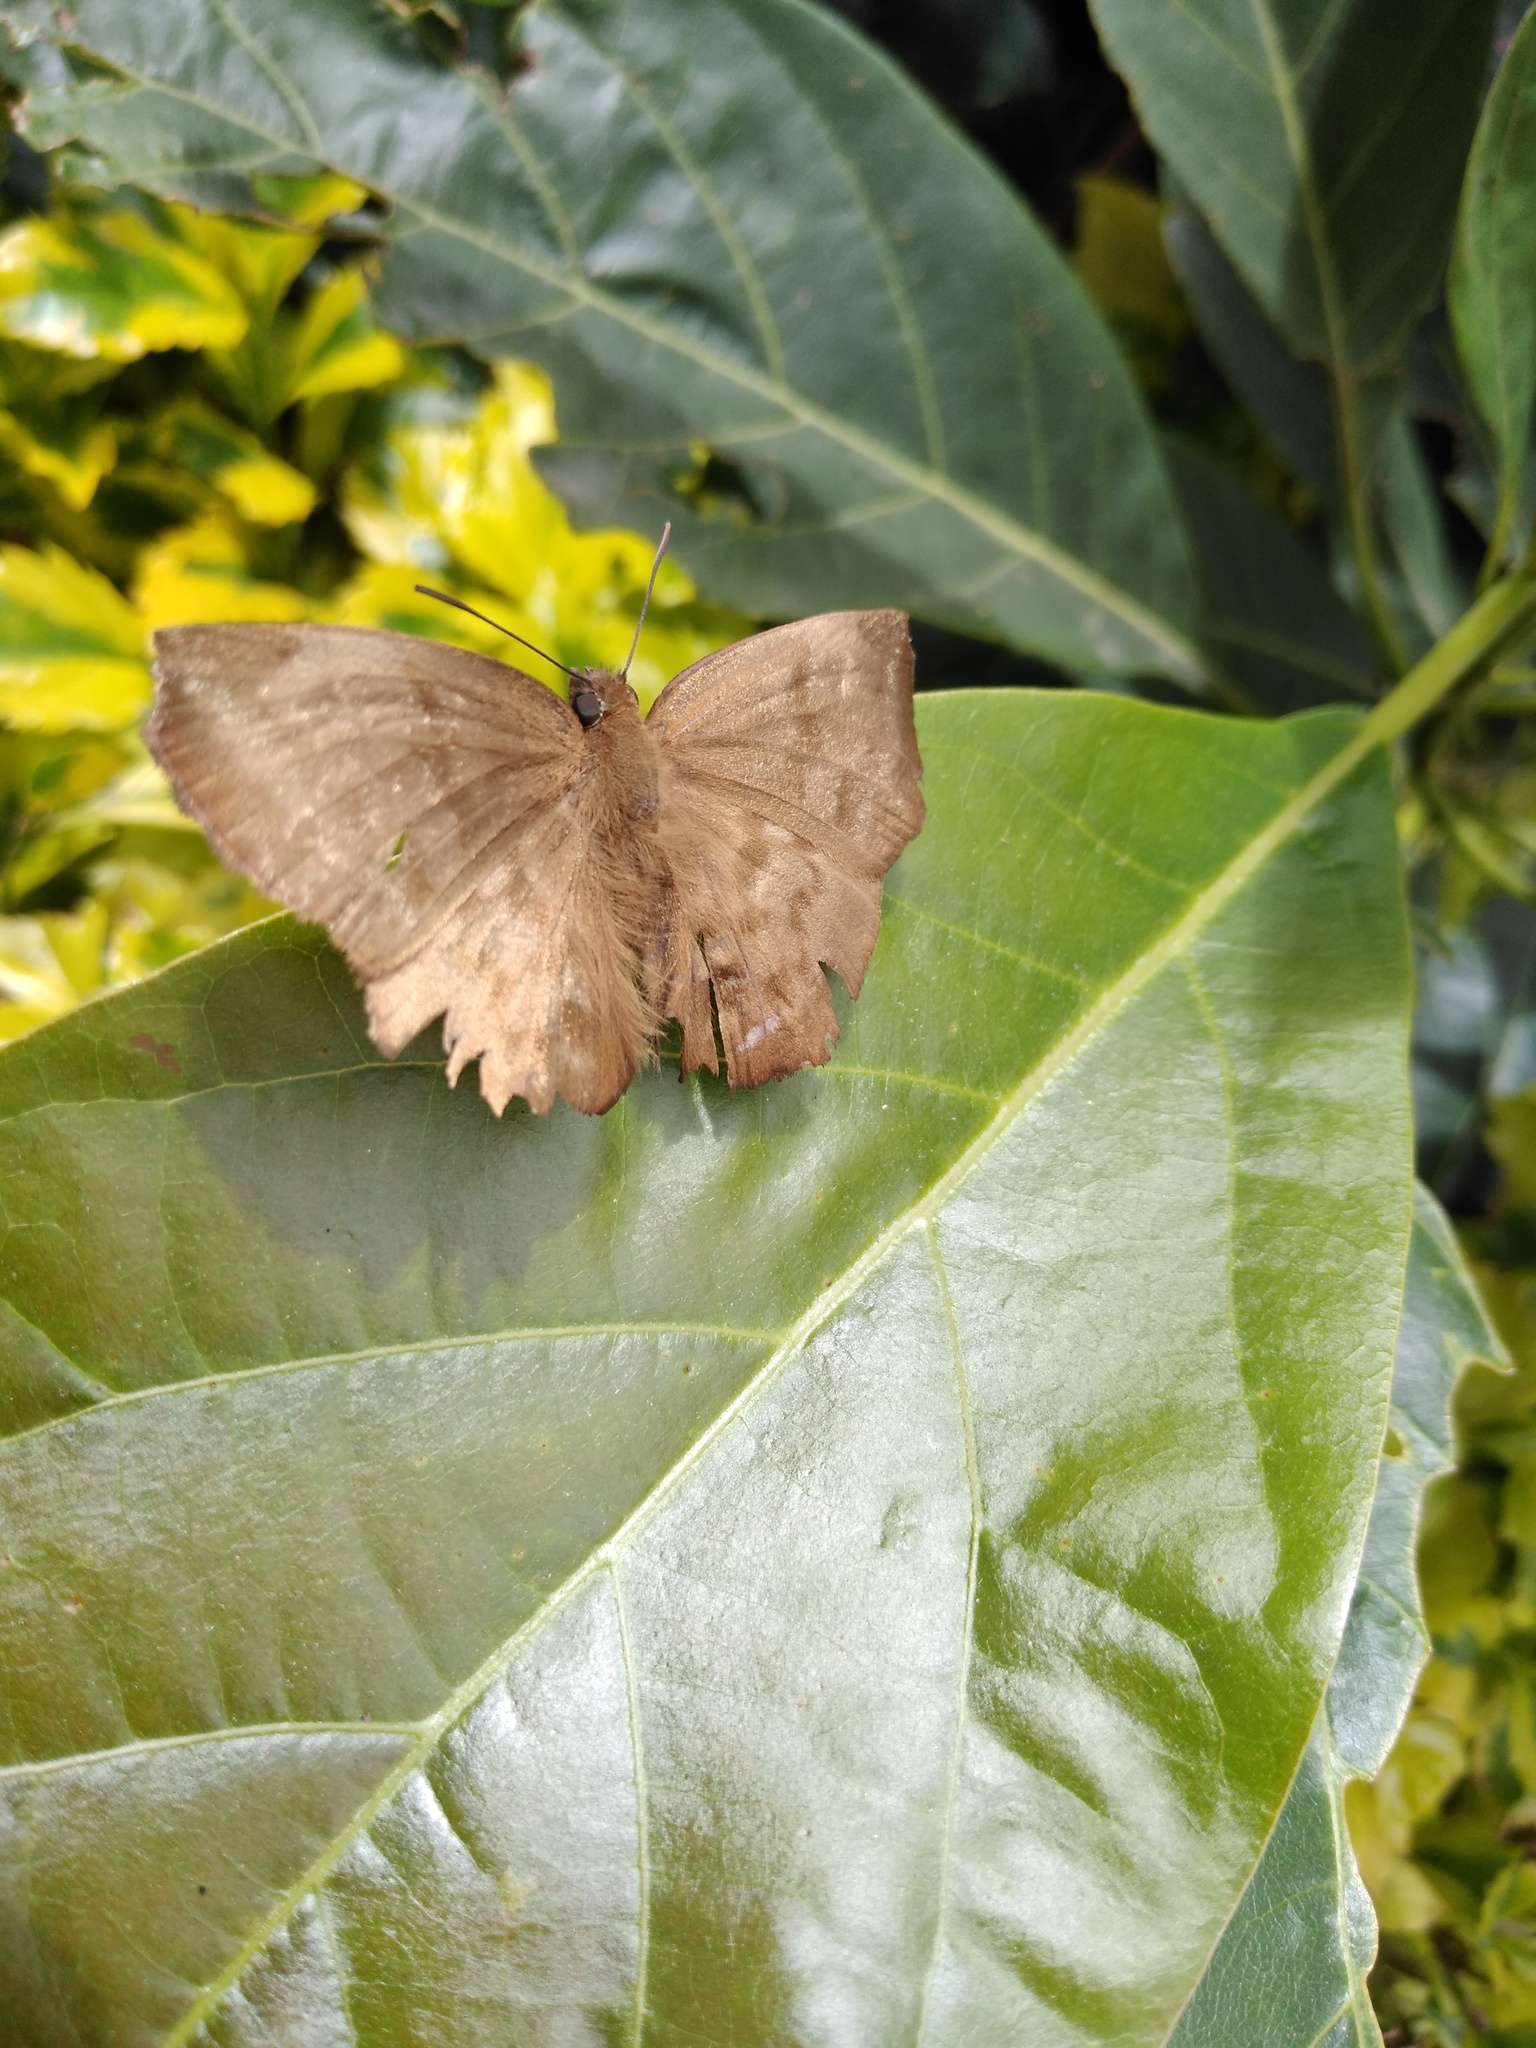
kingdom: Animalia
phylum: Arthropoda
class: Insecta
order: Lepidoptera
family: Hesperiidae
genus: Achlyodes
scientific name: Achlyodes pallida
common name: Pale sicklewing
